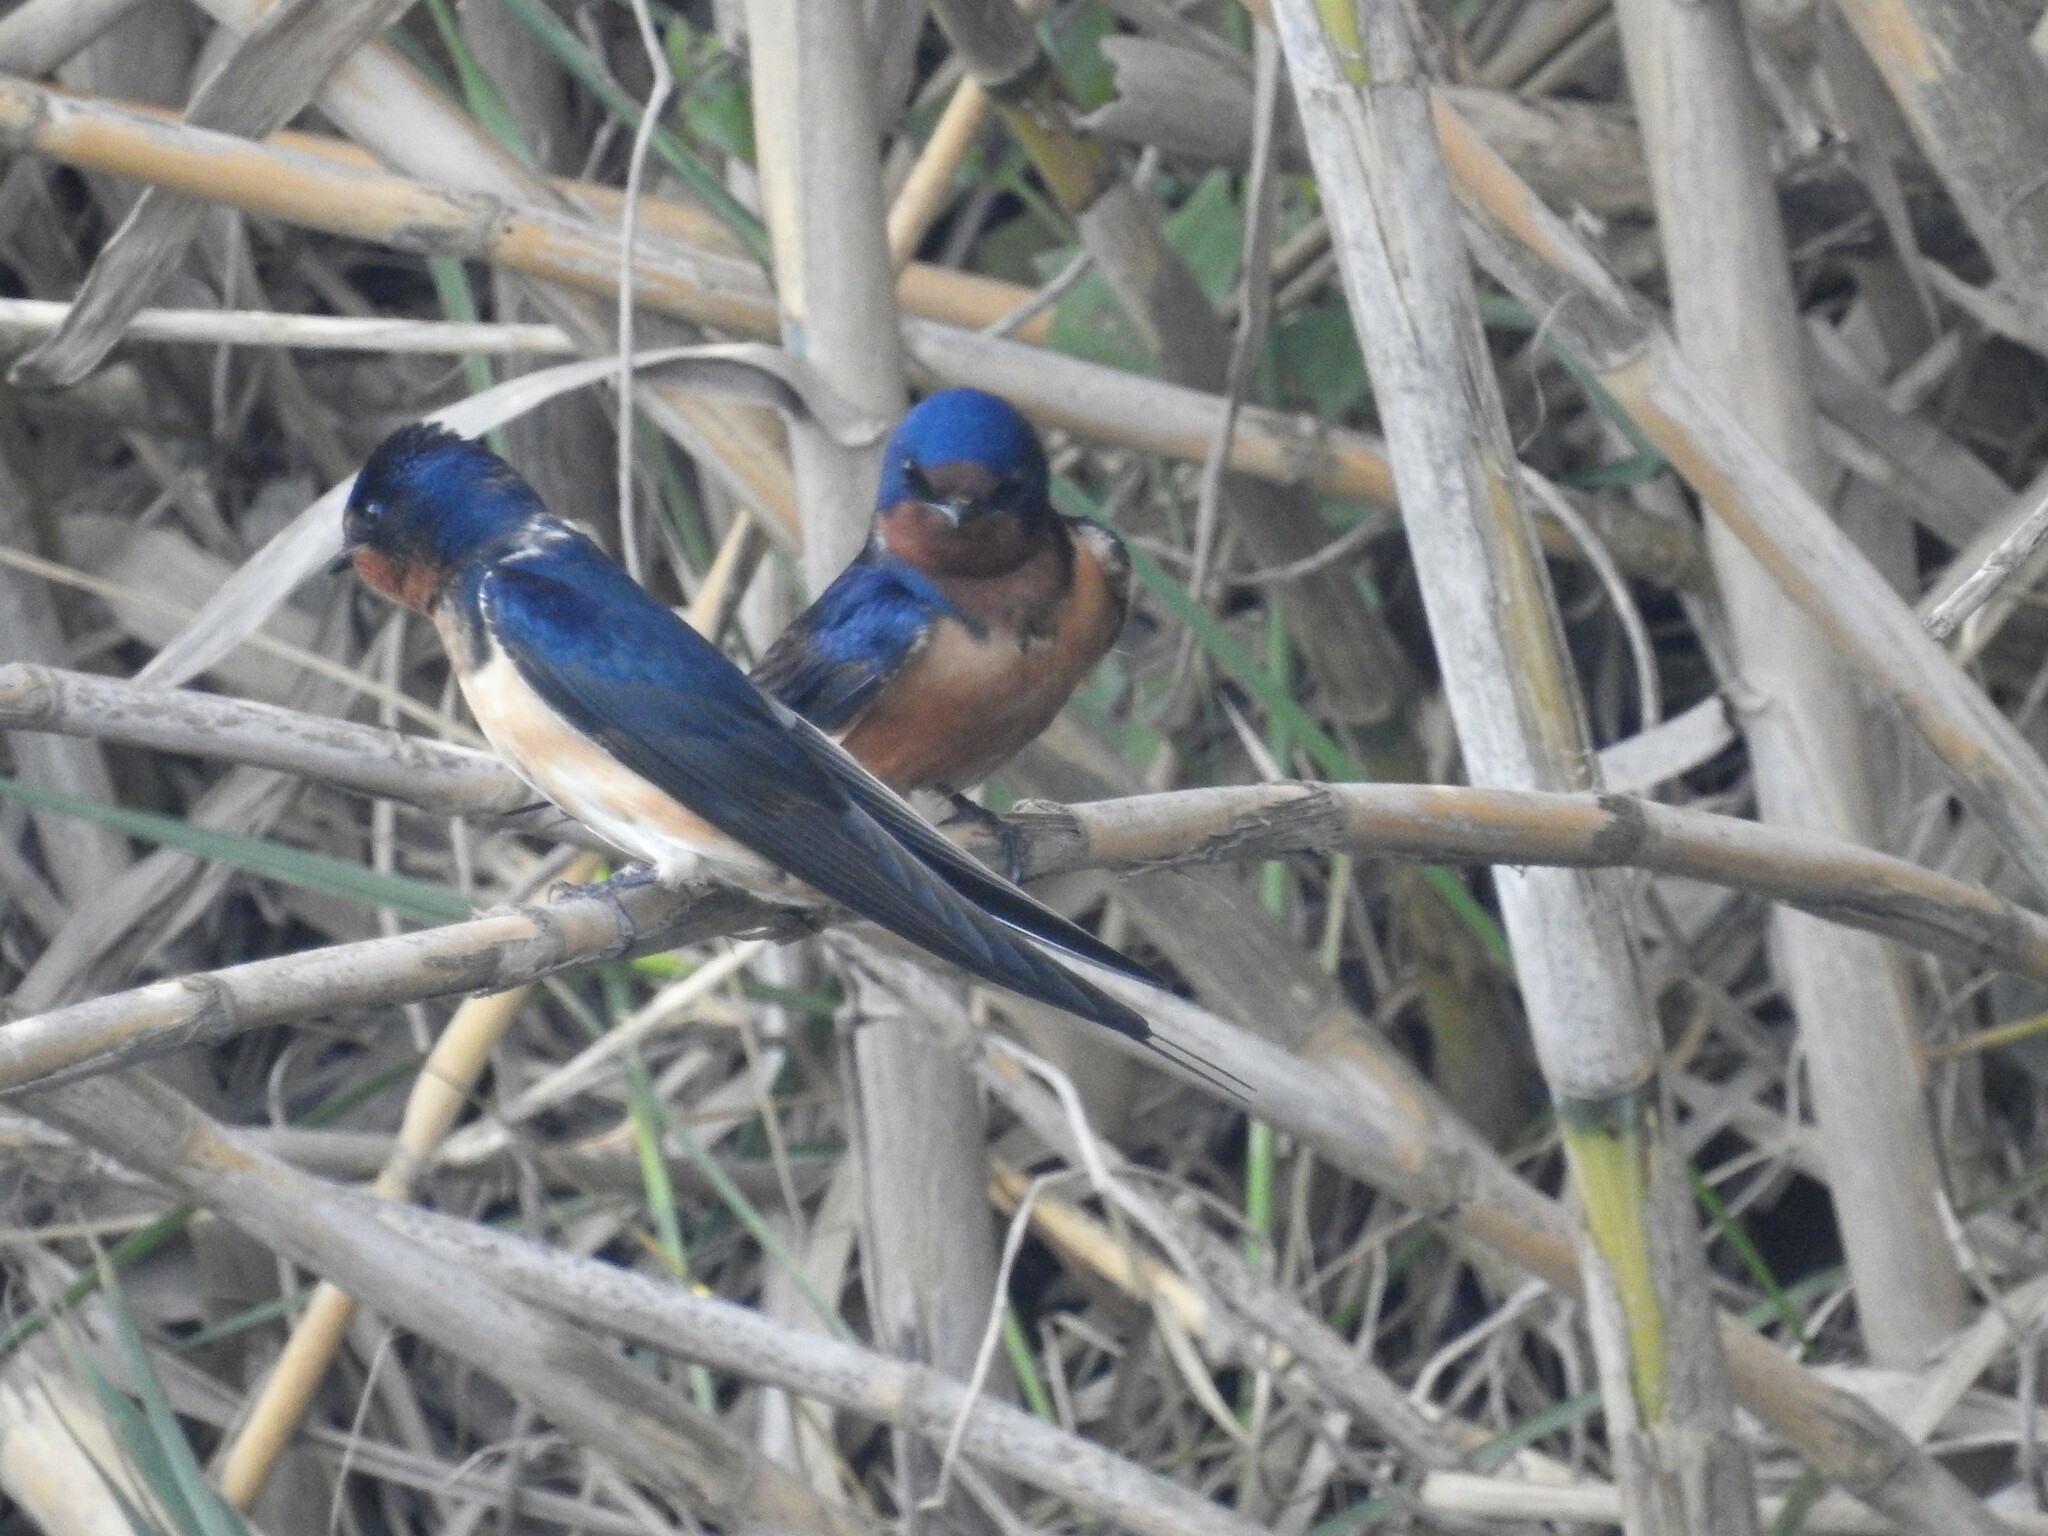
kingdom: Animalia
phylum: Chordata
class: Aves
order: Passeriformes
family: Hirundinidae
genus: Hirundo
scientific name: Hirundo rustica
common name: Barn swallow
